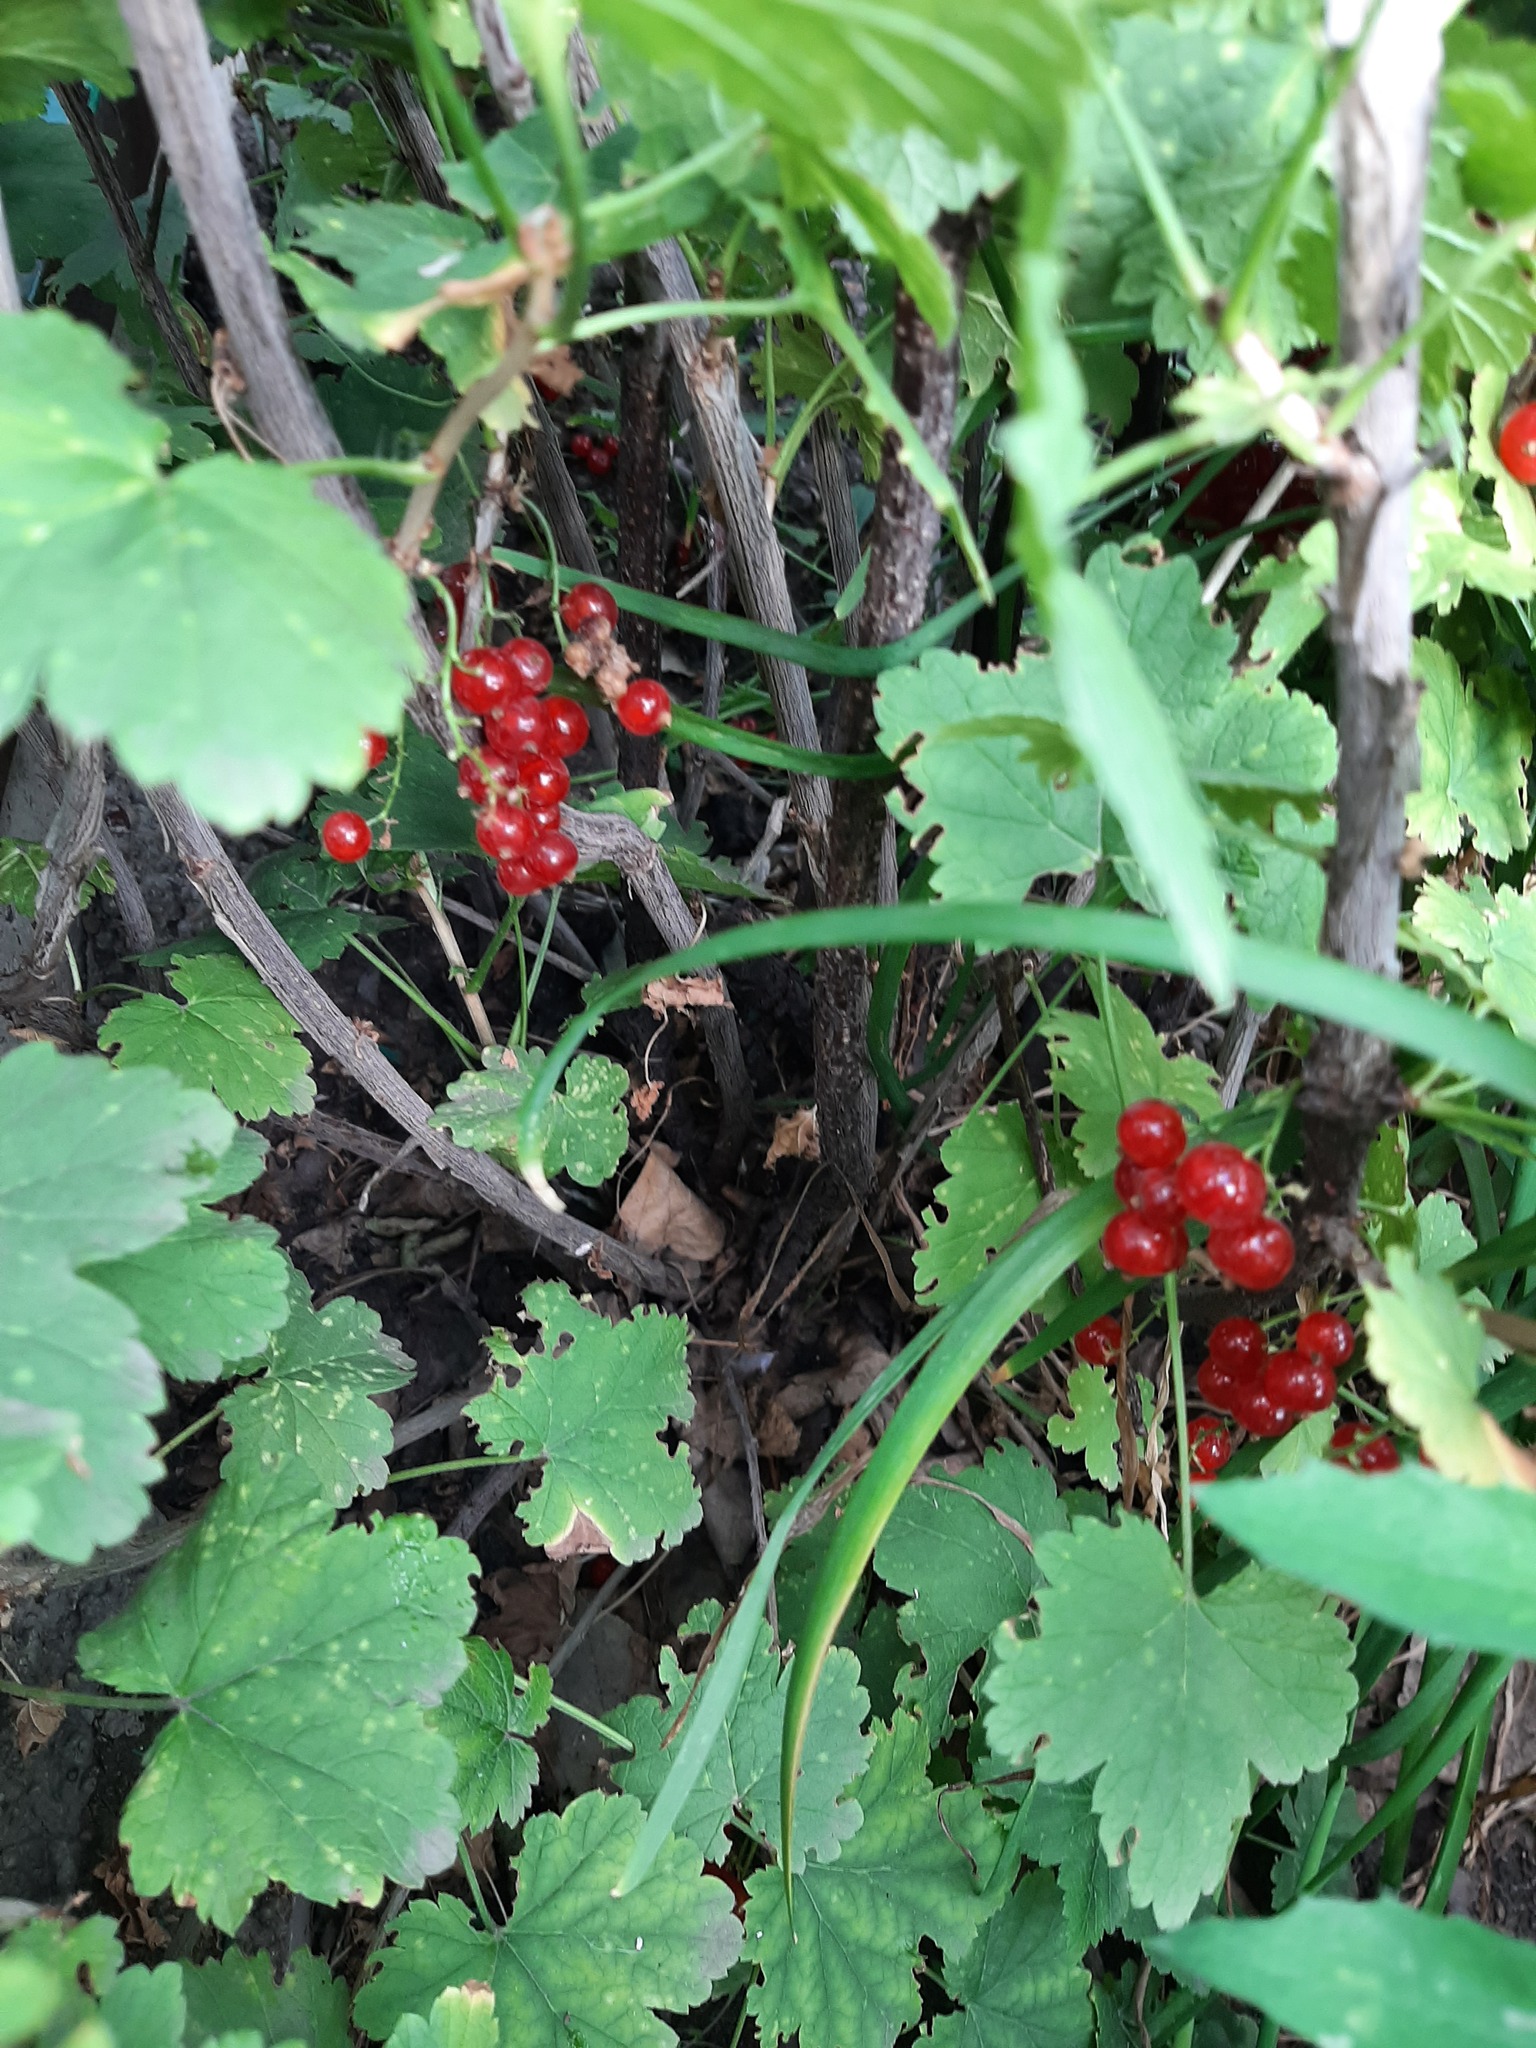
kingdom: Plantae
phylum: Tracheophyta
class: Magnoliopsida
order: Saxifragales
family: Grossulariaceae
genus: Ribes
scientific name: Ribes rubrum
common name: Red currant
